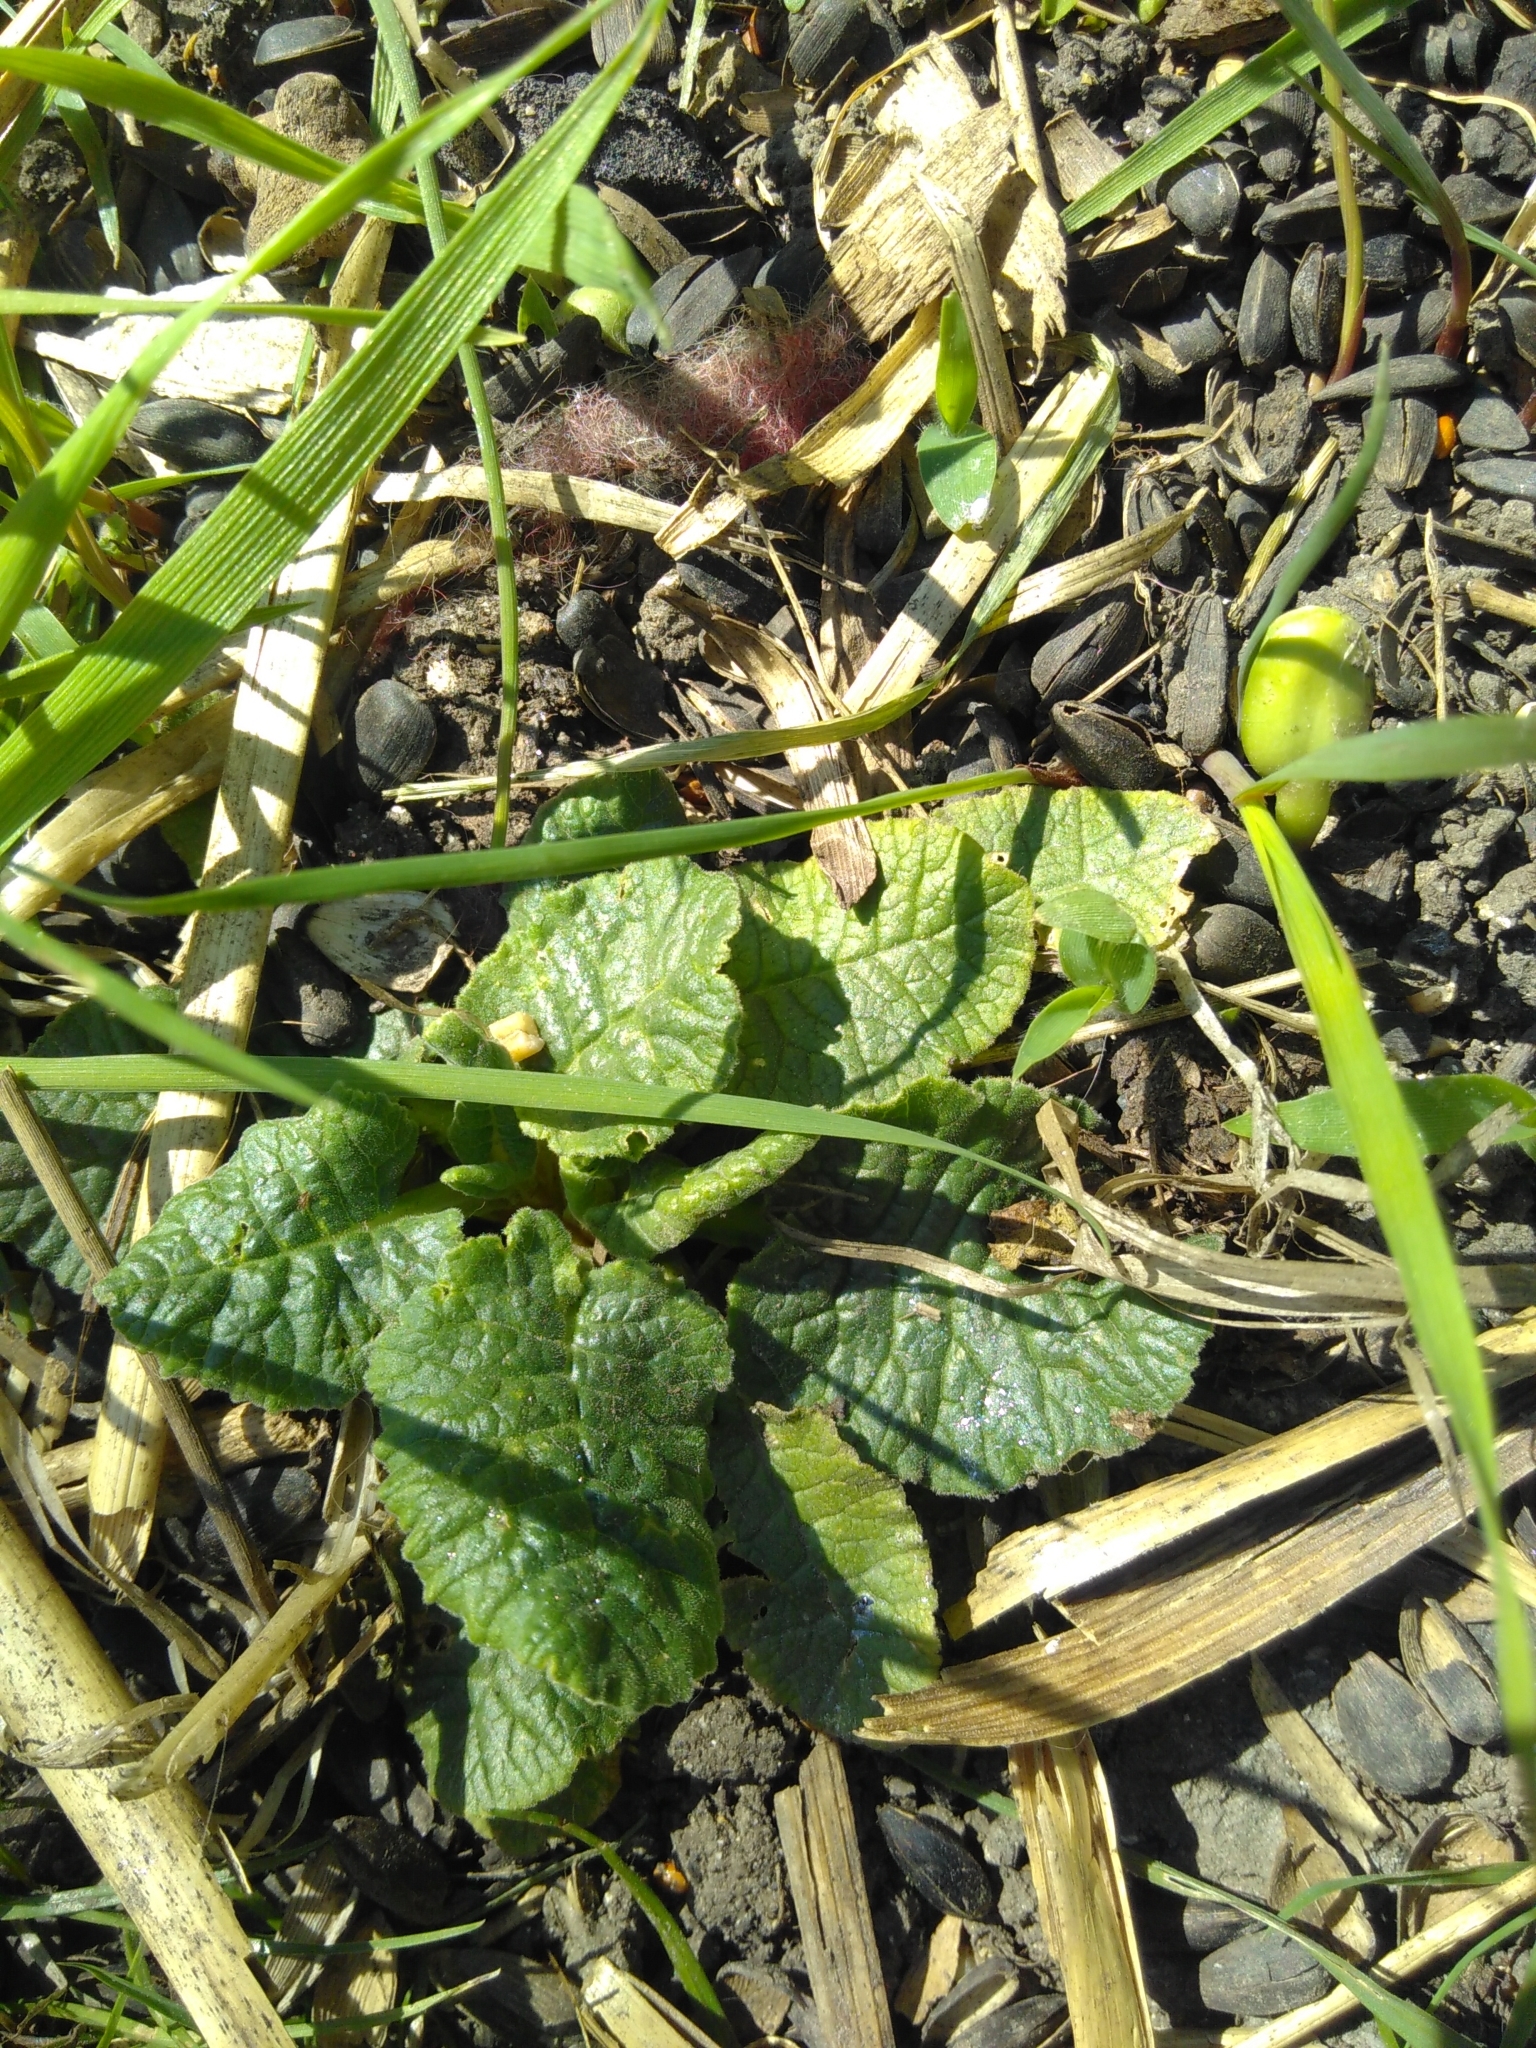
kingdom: Plantae
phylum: Tracheophyta
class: Magnoliopsida
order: Ericales
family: Primulaceae
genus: Primula
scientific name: Primula veris
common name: Cowslip
